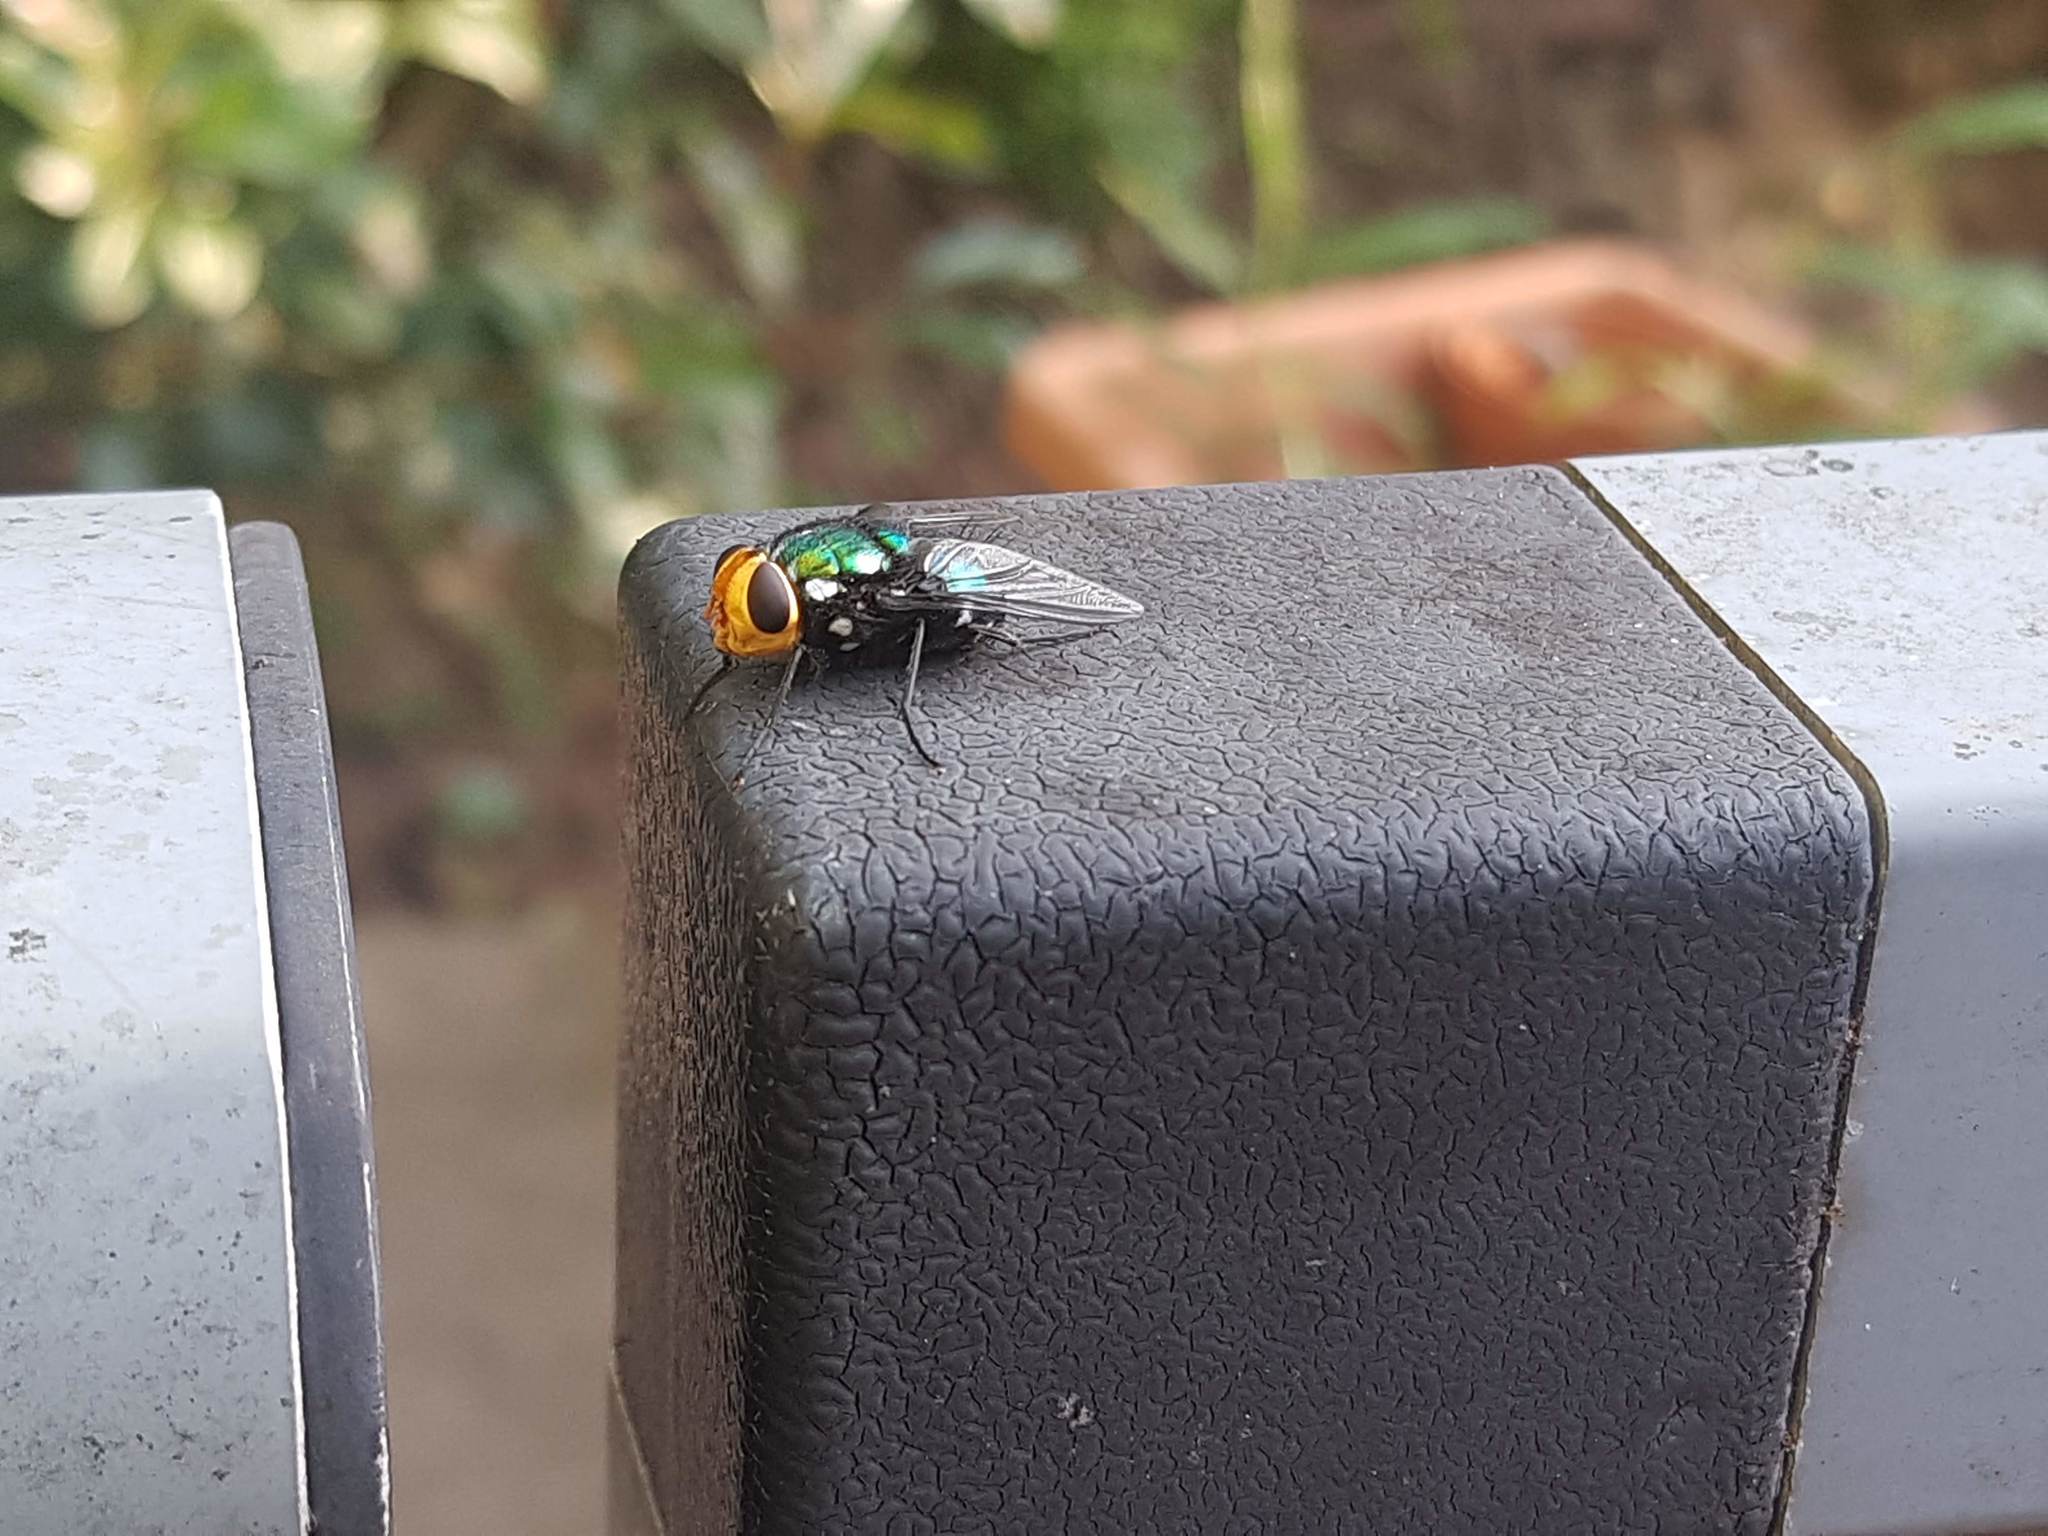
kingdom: Animalia
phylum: Arthropoda
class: Insecta
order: Diptera
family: Calliphoridae
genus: Amenia
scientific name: Amenia imperialis
